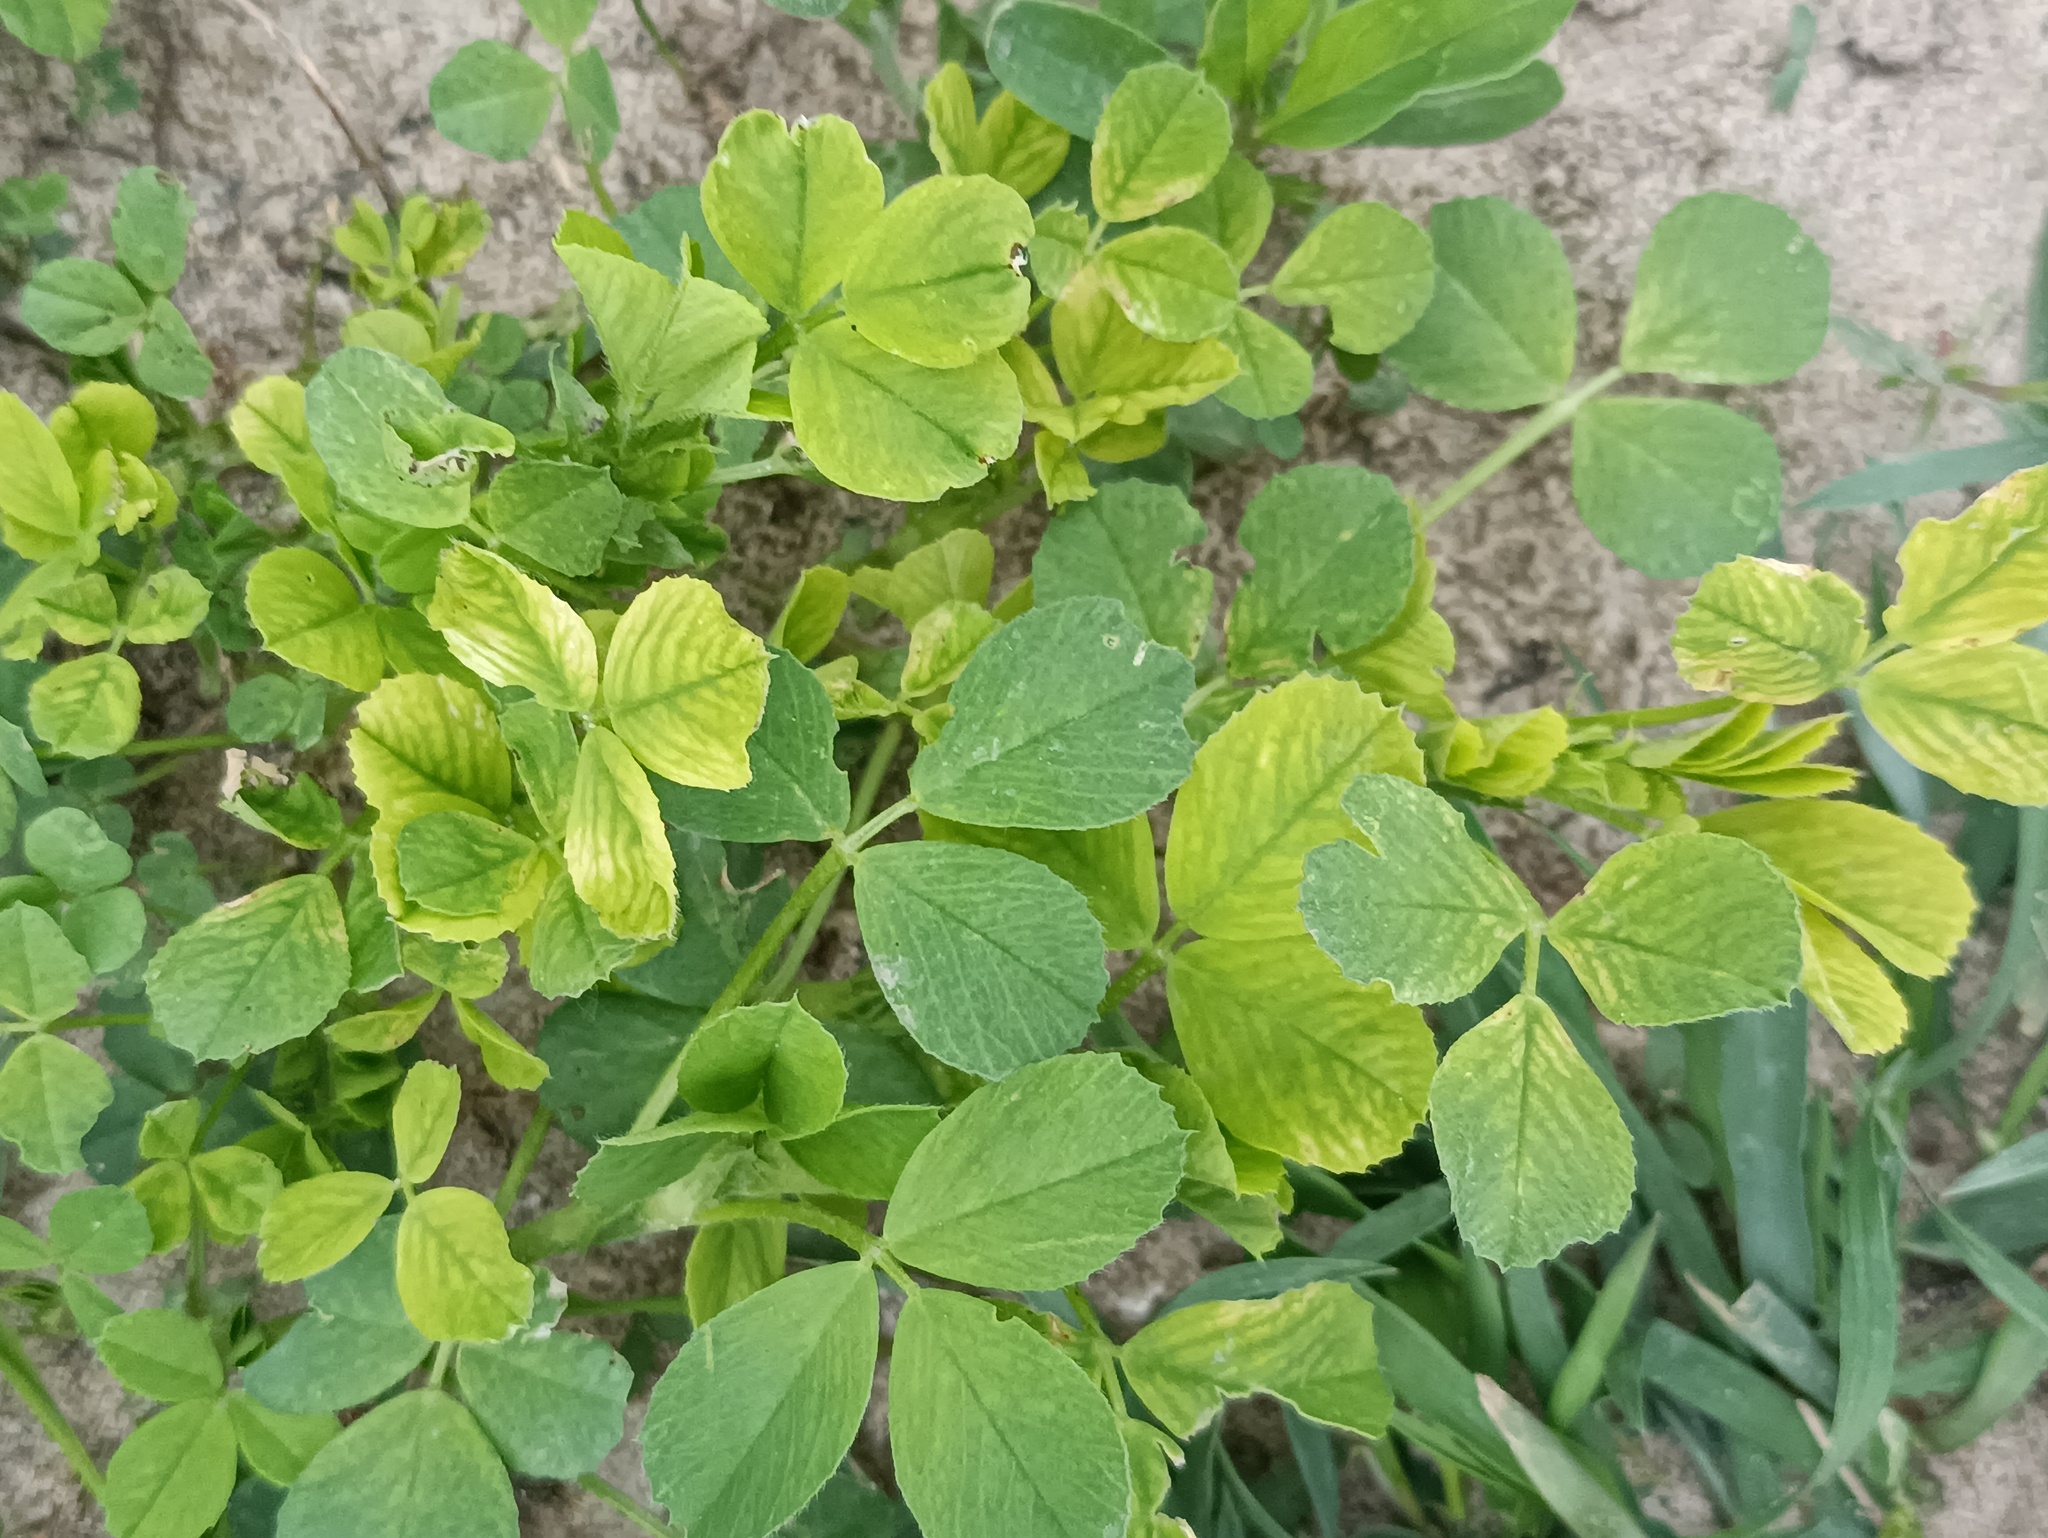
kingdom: Plantae
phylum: Tracheophyta
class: Magnoliopsida
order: Fabales
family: Fabaceae
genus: Medicago
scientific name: Medicago lupulina
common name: Black medick
